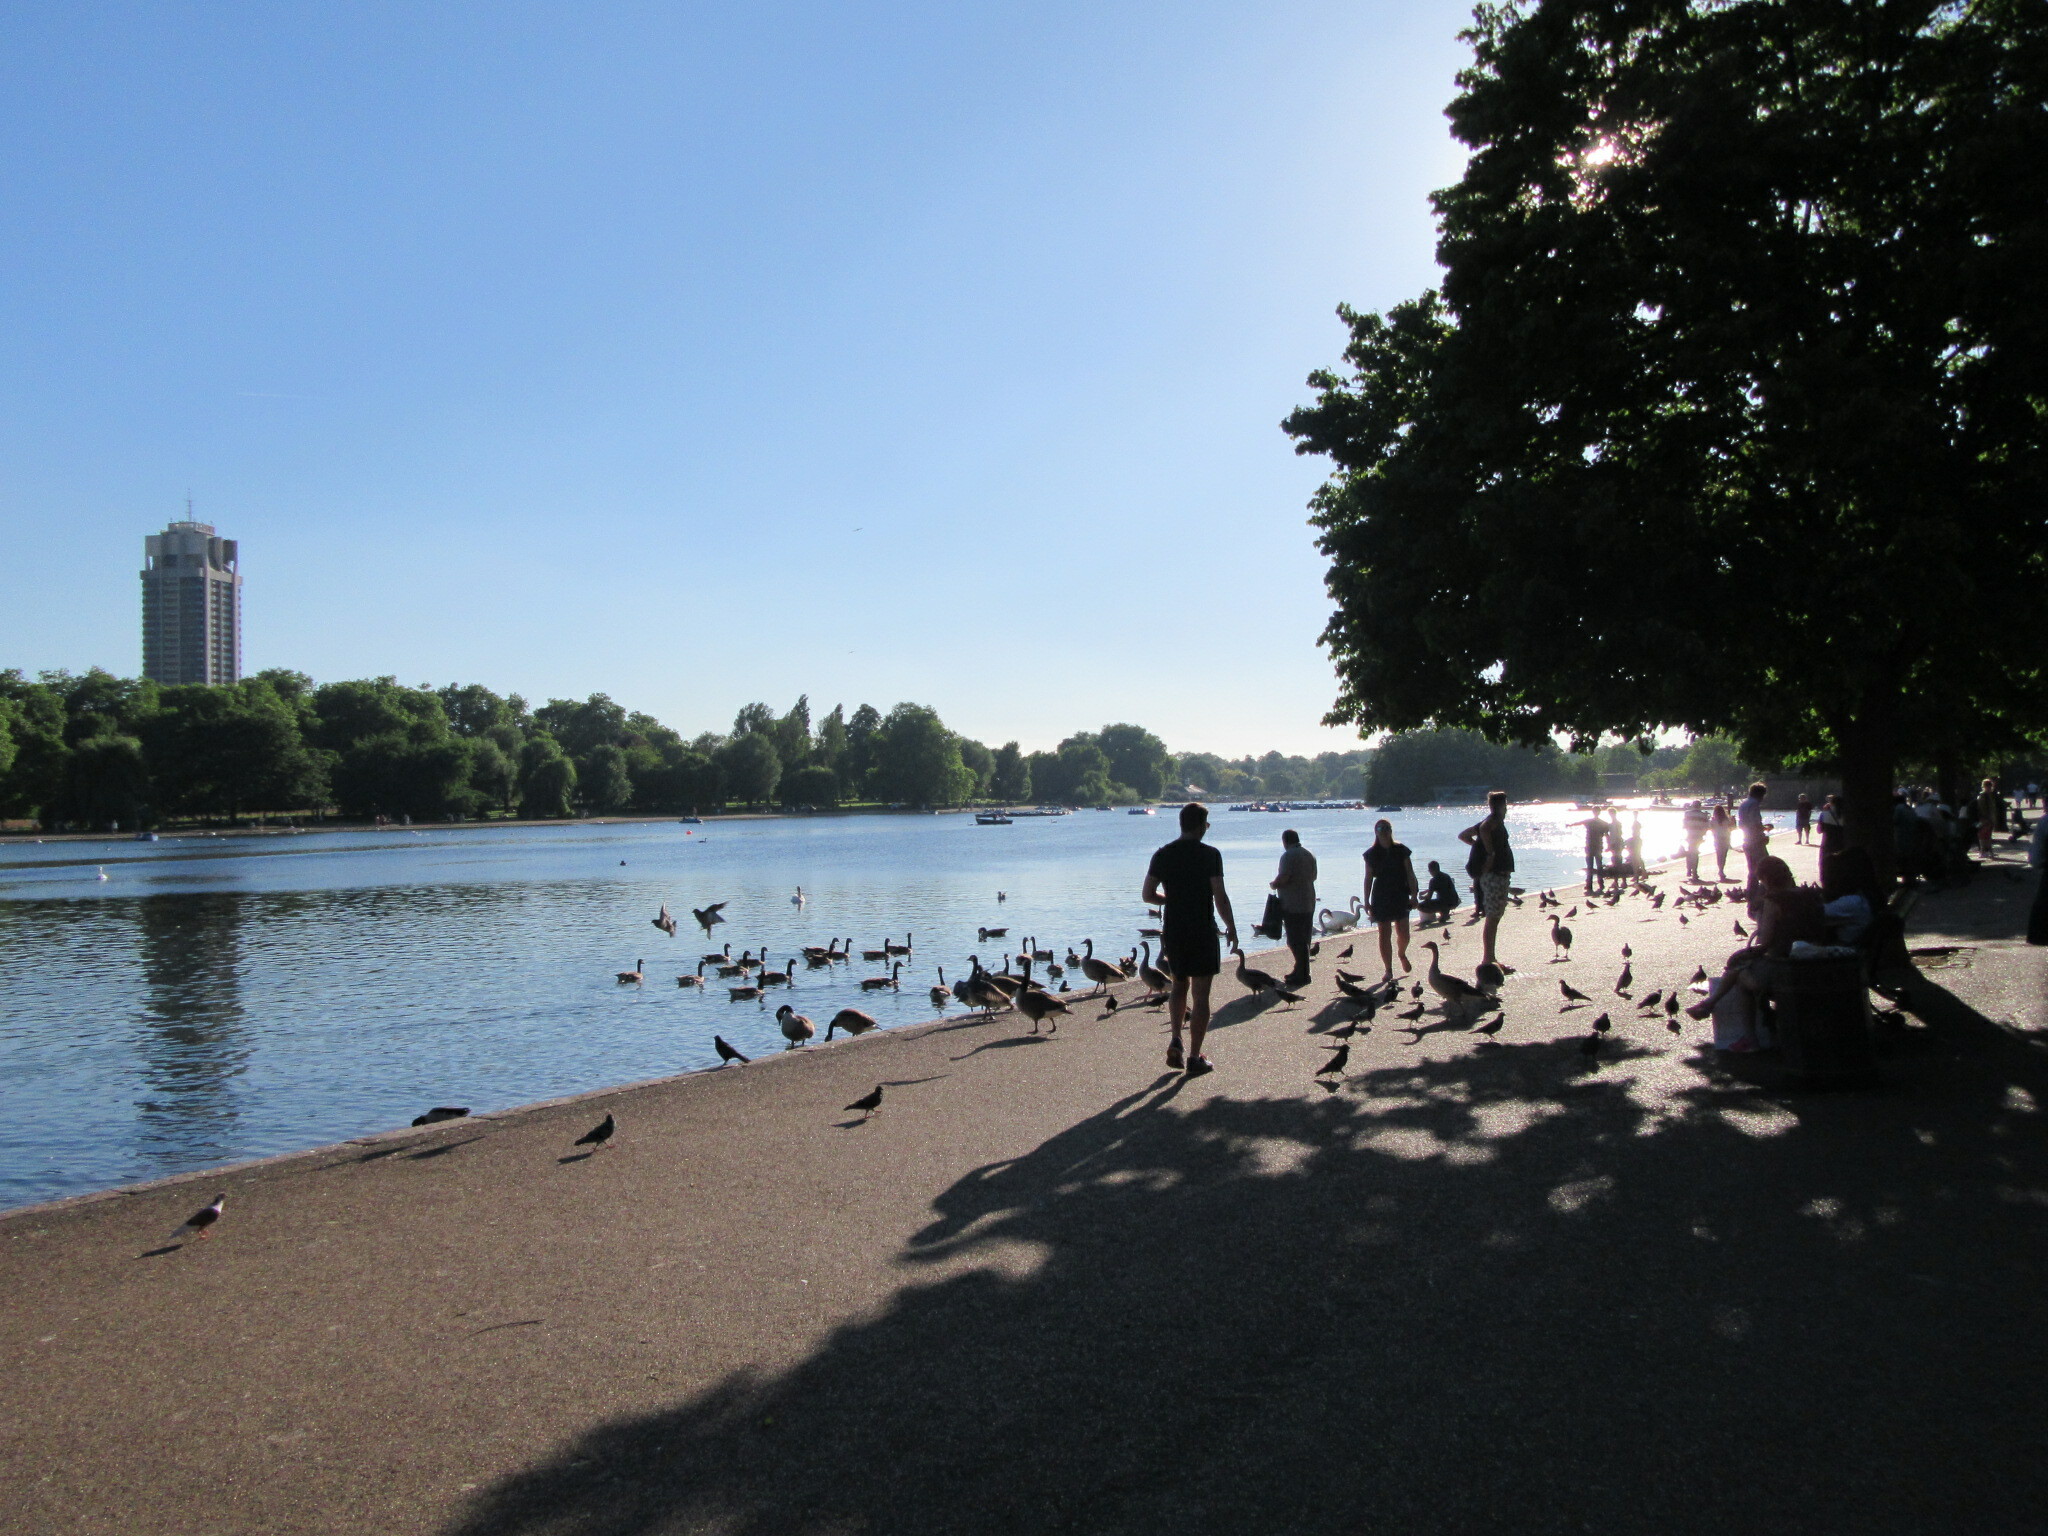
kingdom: Animalia
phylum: Chordata
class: Aves
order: Anseriformes
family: Anatidae
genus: Anser
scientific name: Anser anser
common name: Greylag goose
